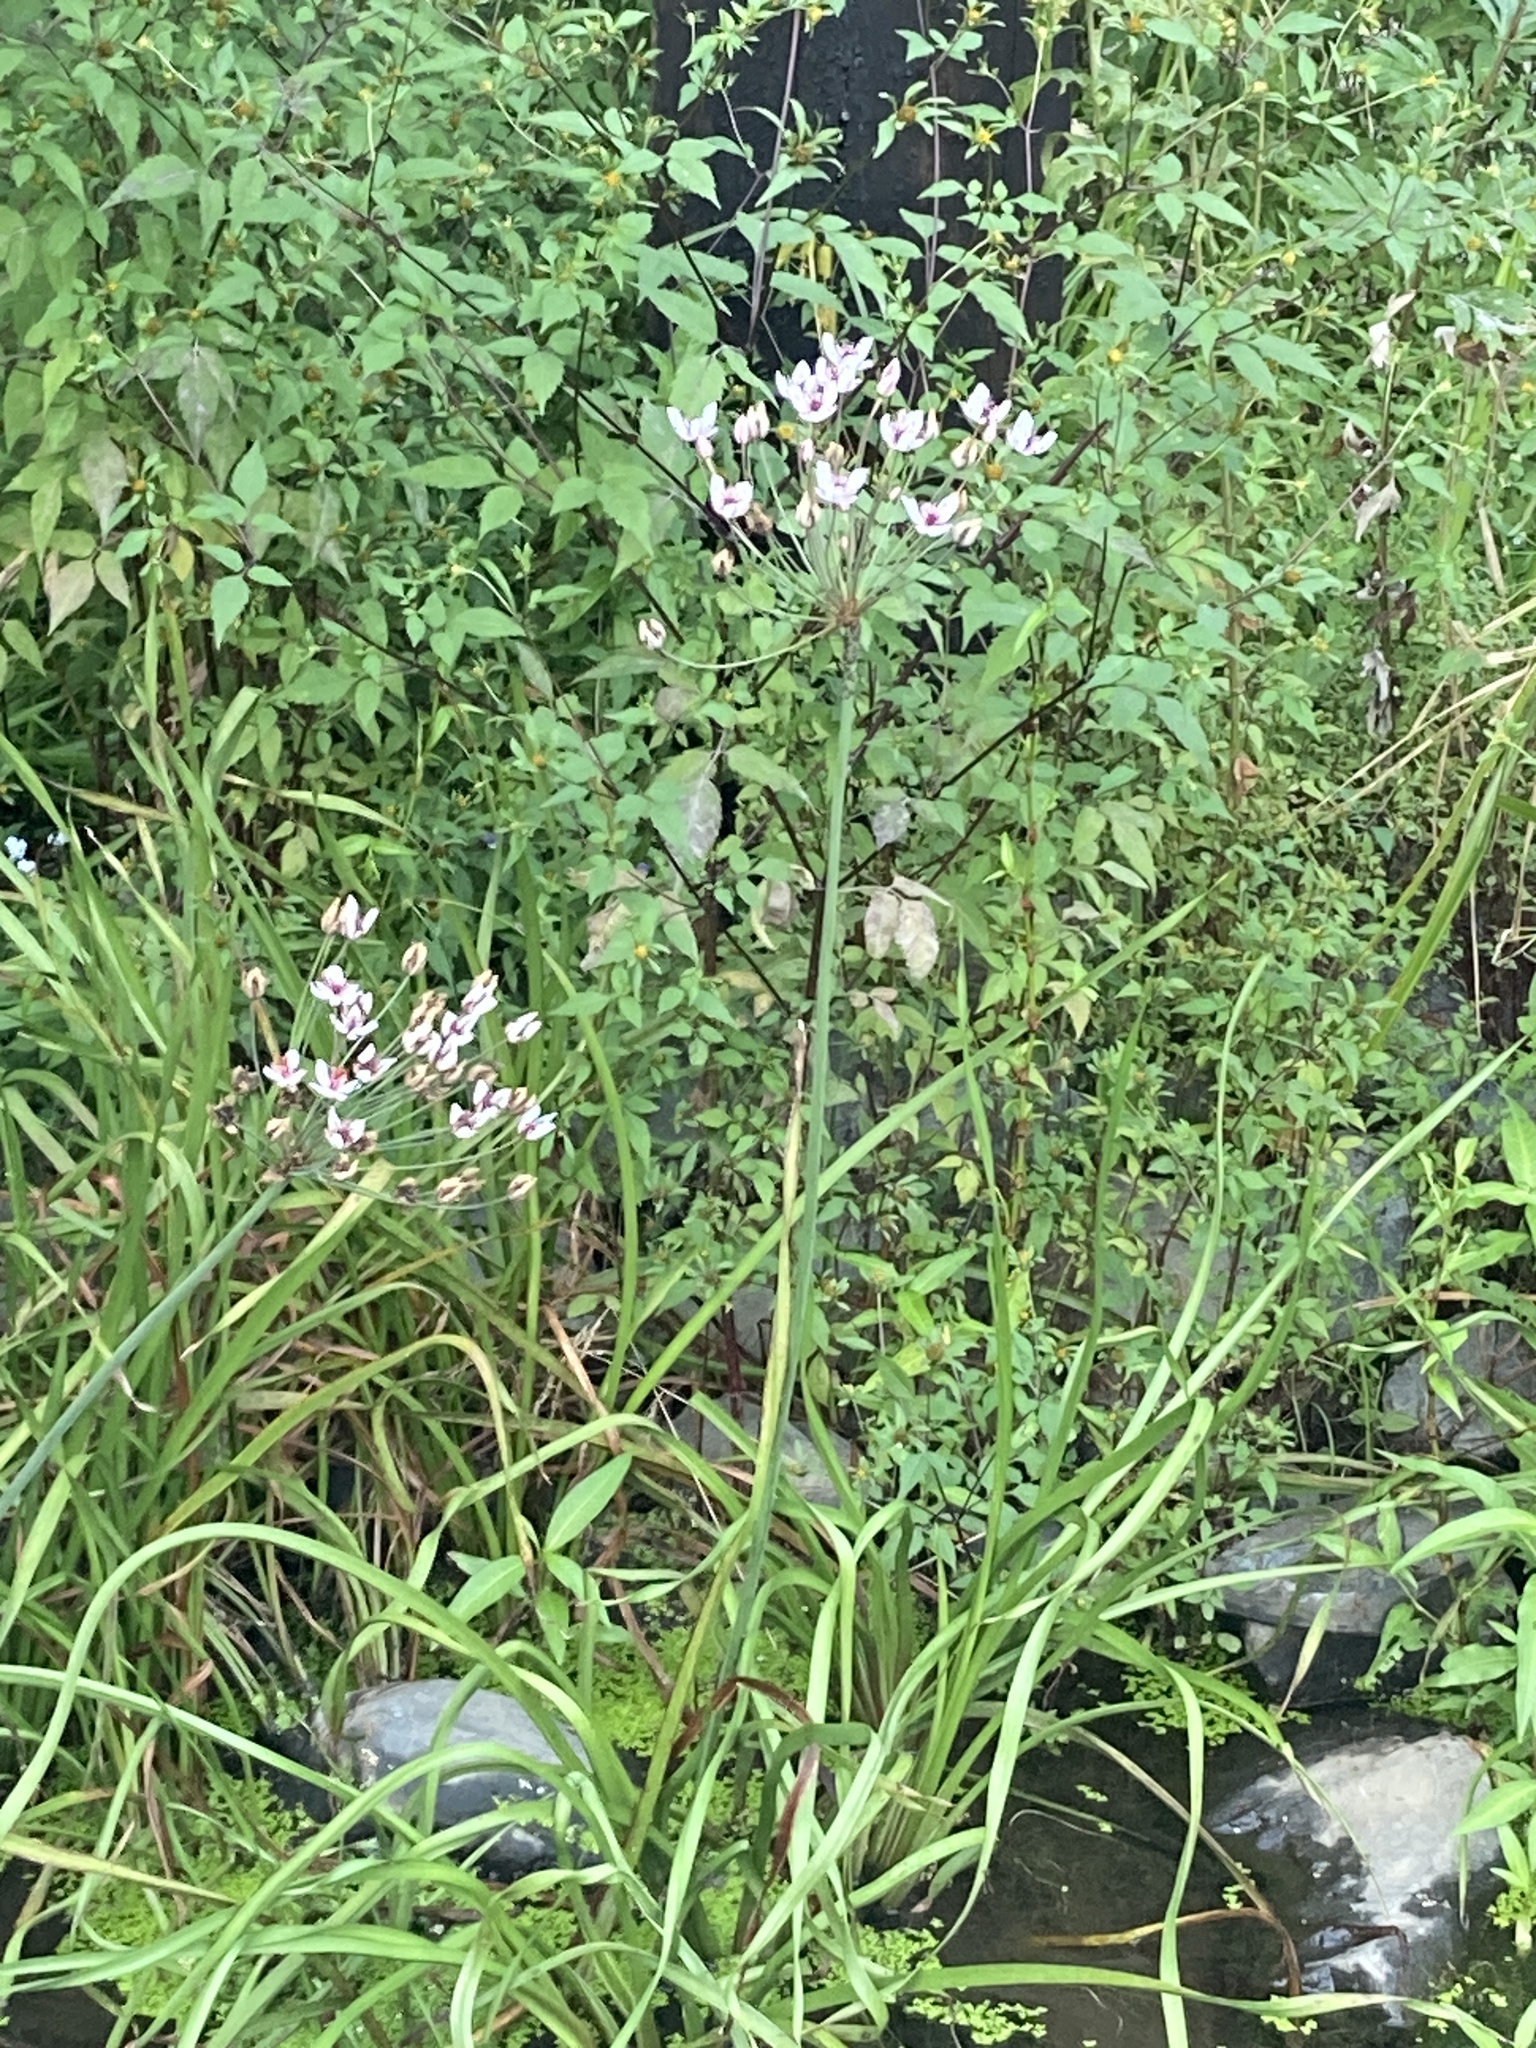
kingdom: Plantae
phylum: Tracheophyta
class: Liliopsida
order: Alismatales
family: Butomaceae
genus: Butomus
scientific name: Butomus umbellatus
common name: Flowering-rush
